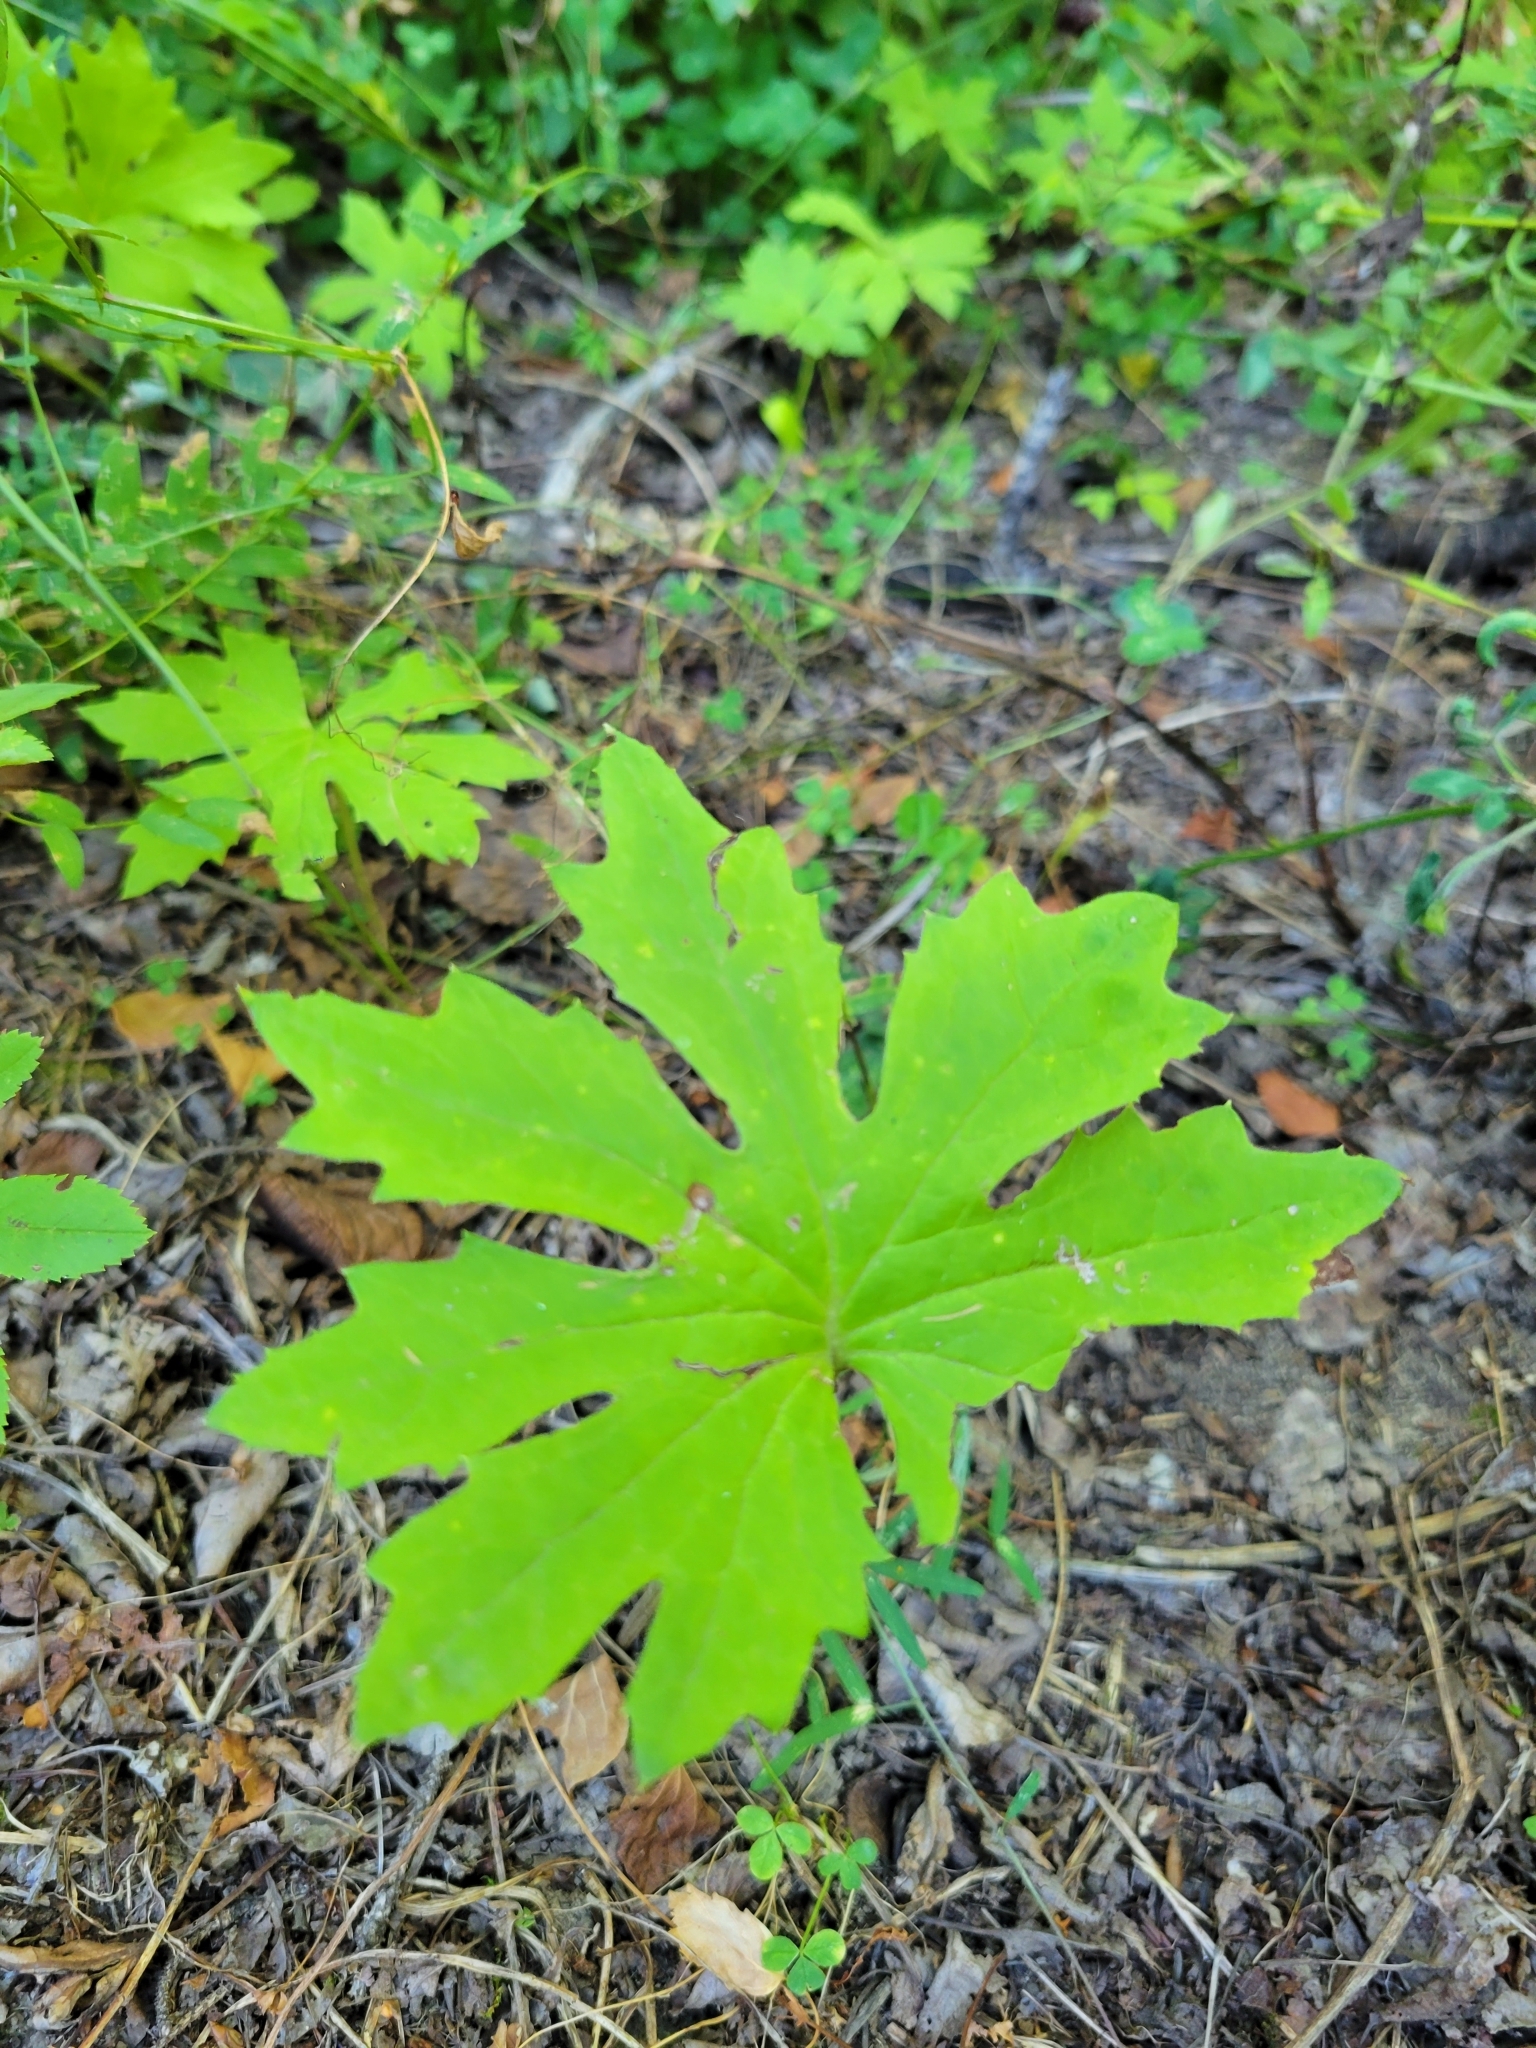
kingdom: Plantae
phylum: Tracheophyta
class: Magnoliopsida
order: Asterales
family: Asteraceae
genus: Petasites
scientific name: Petasites frigidus
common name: Arctic butterbur
